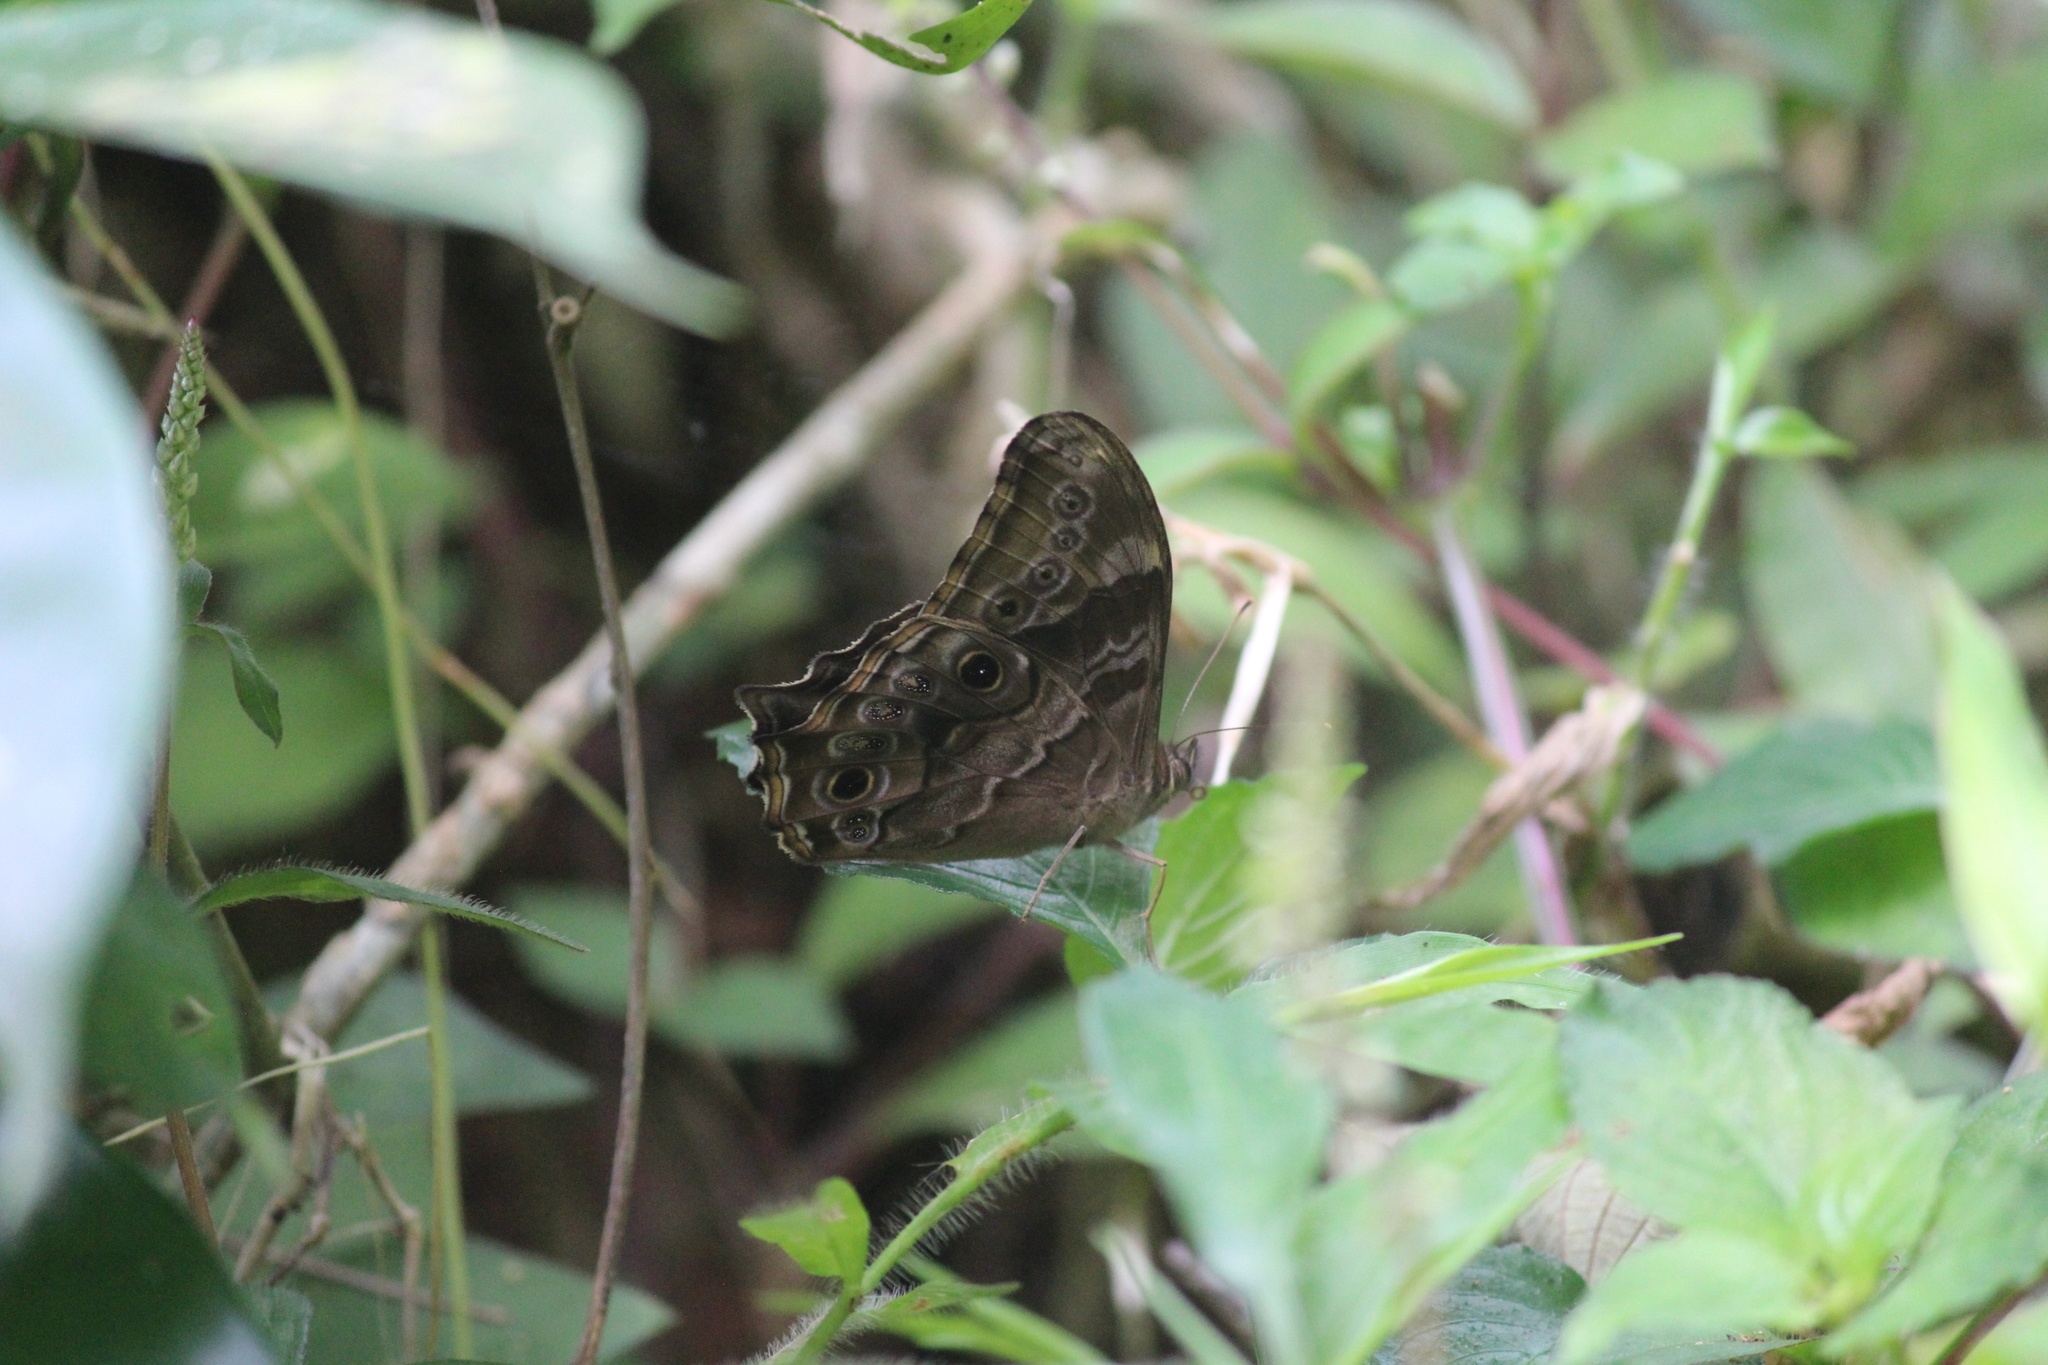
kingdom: Animalia
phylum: Arthropoda
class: Insecta
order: Lepidoptera
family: Nymphalidae
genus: Lethe
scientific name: Lethe drypetis
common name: Tamil treebrown
